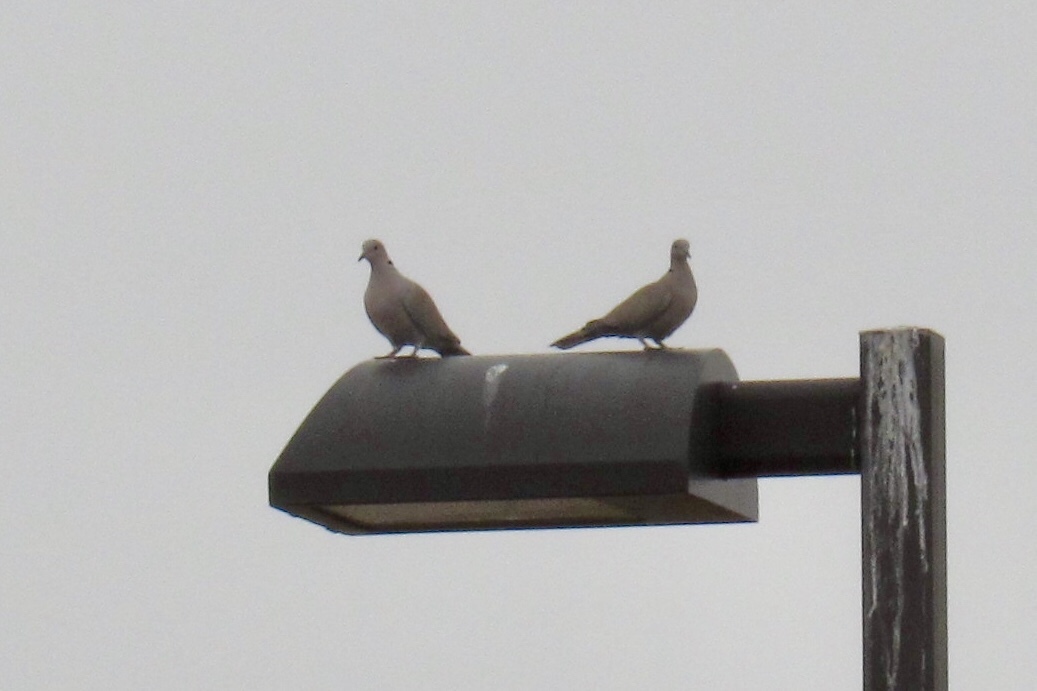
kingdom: Animalia
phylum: Chordata
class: Aves
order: Columbiformes
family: Columbidae
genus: Streptopelia
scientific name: Streptopelia decaocto
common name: Eurasian collared dove
